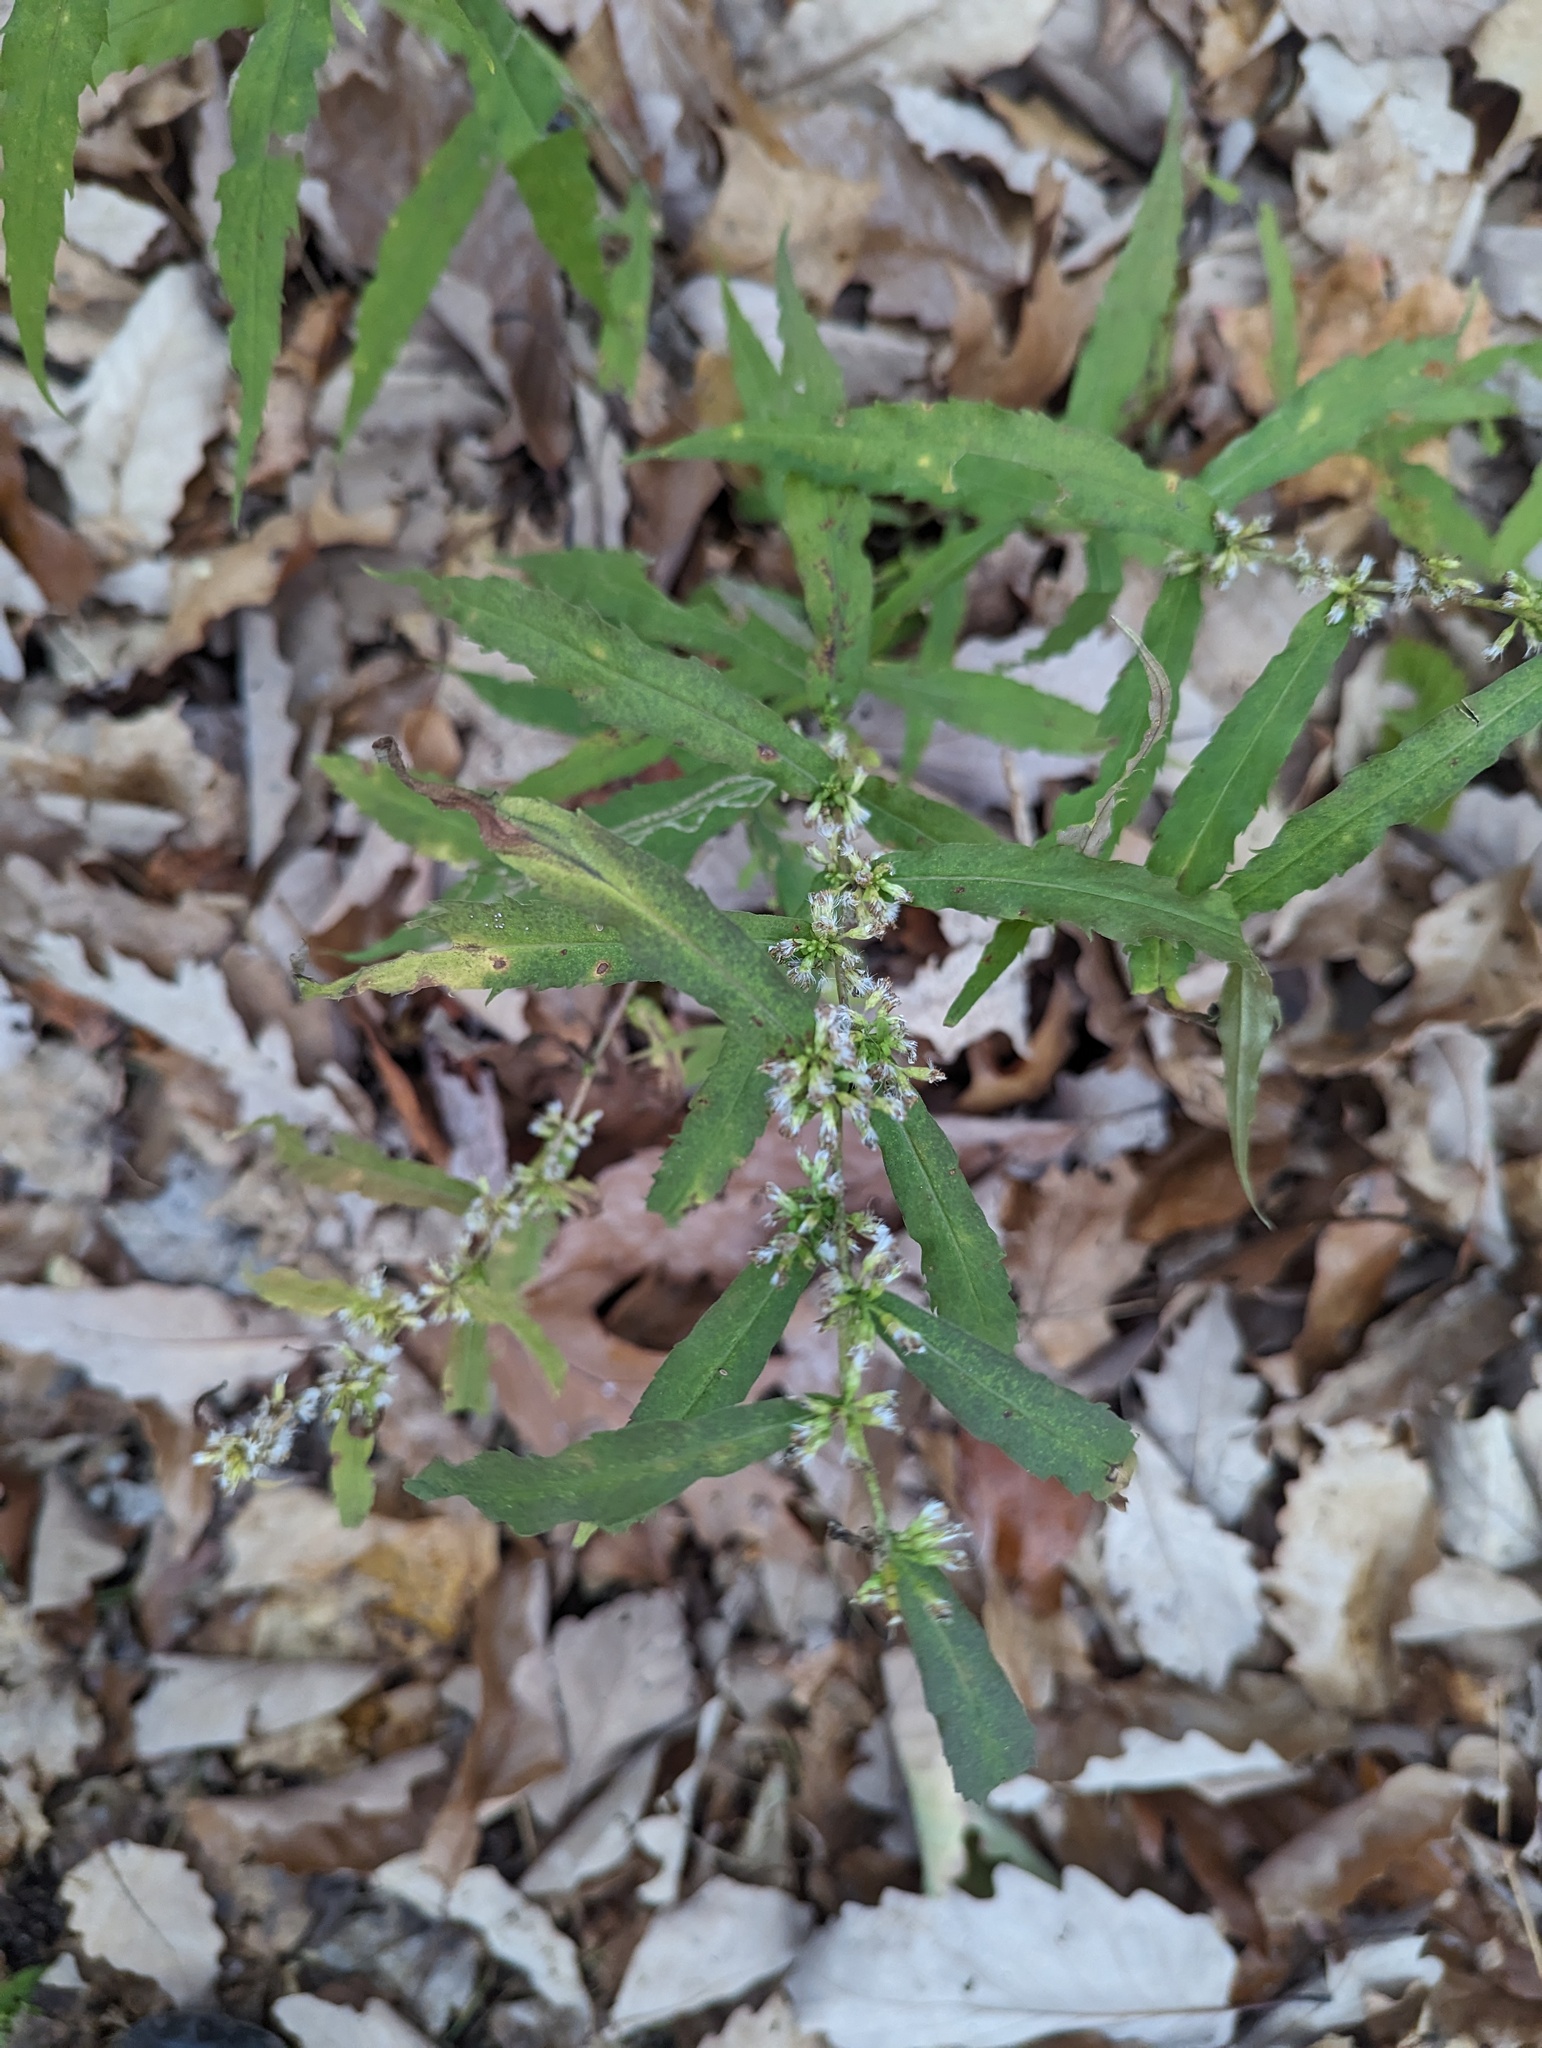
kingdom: Plantae
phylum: Tracheophyta
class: Magnoliopsida
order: Asterales
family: Asteraceae
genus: Solidago
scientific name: Solidago caesia
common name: Woodland goldenrod
